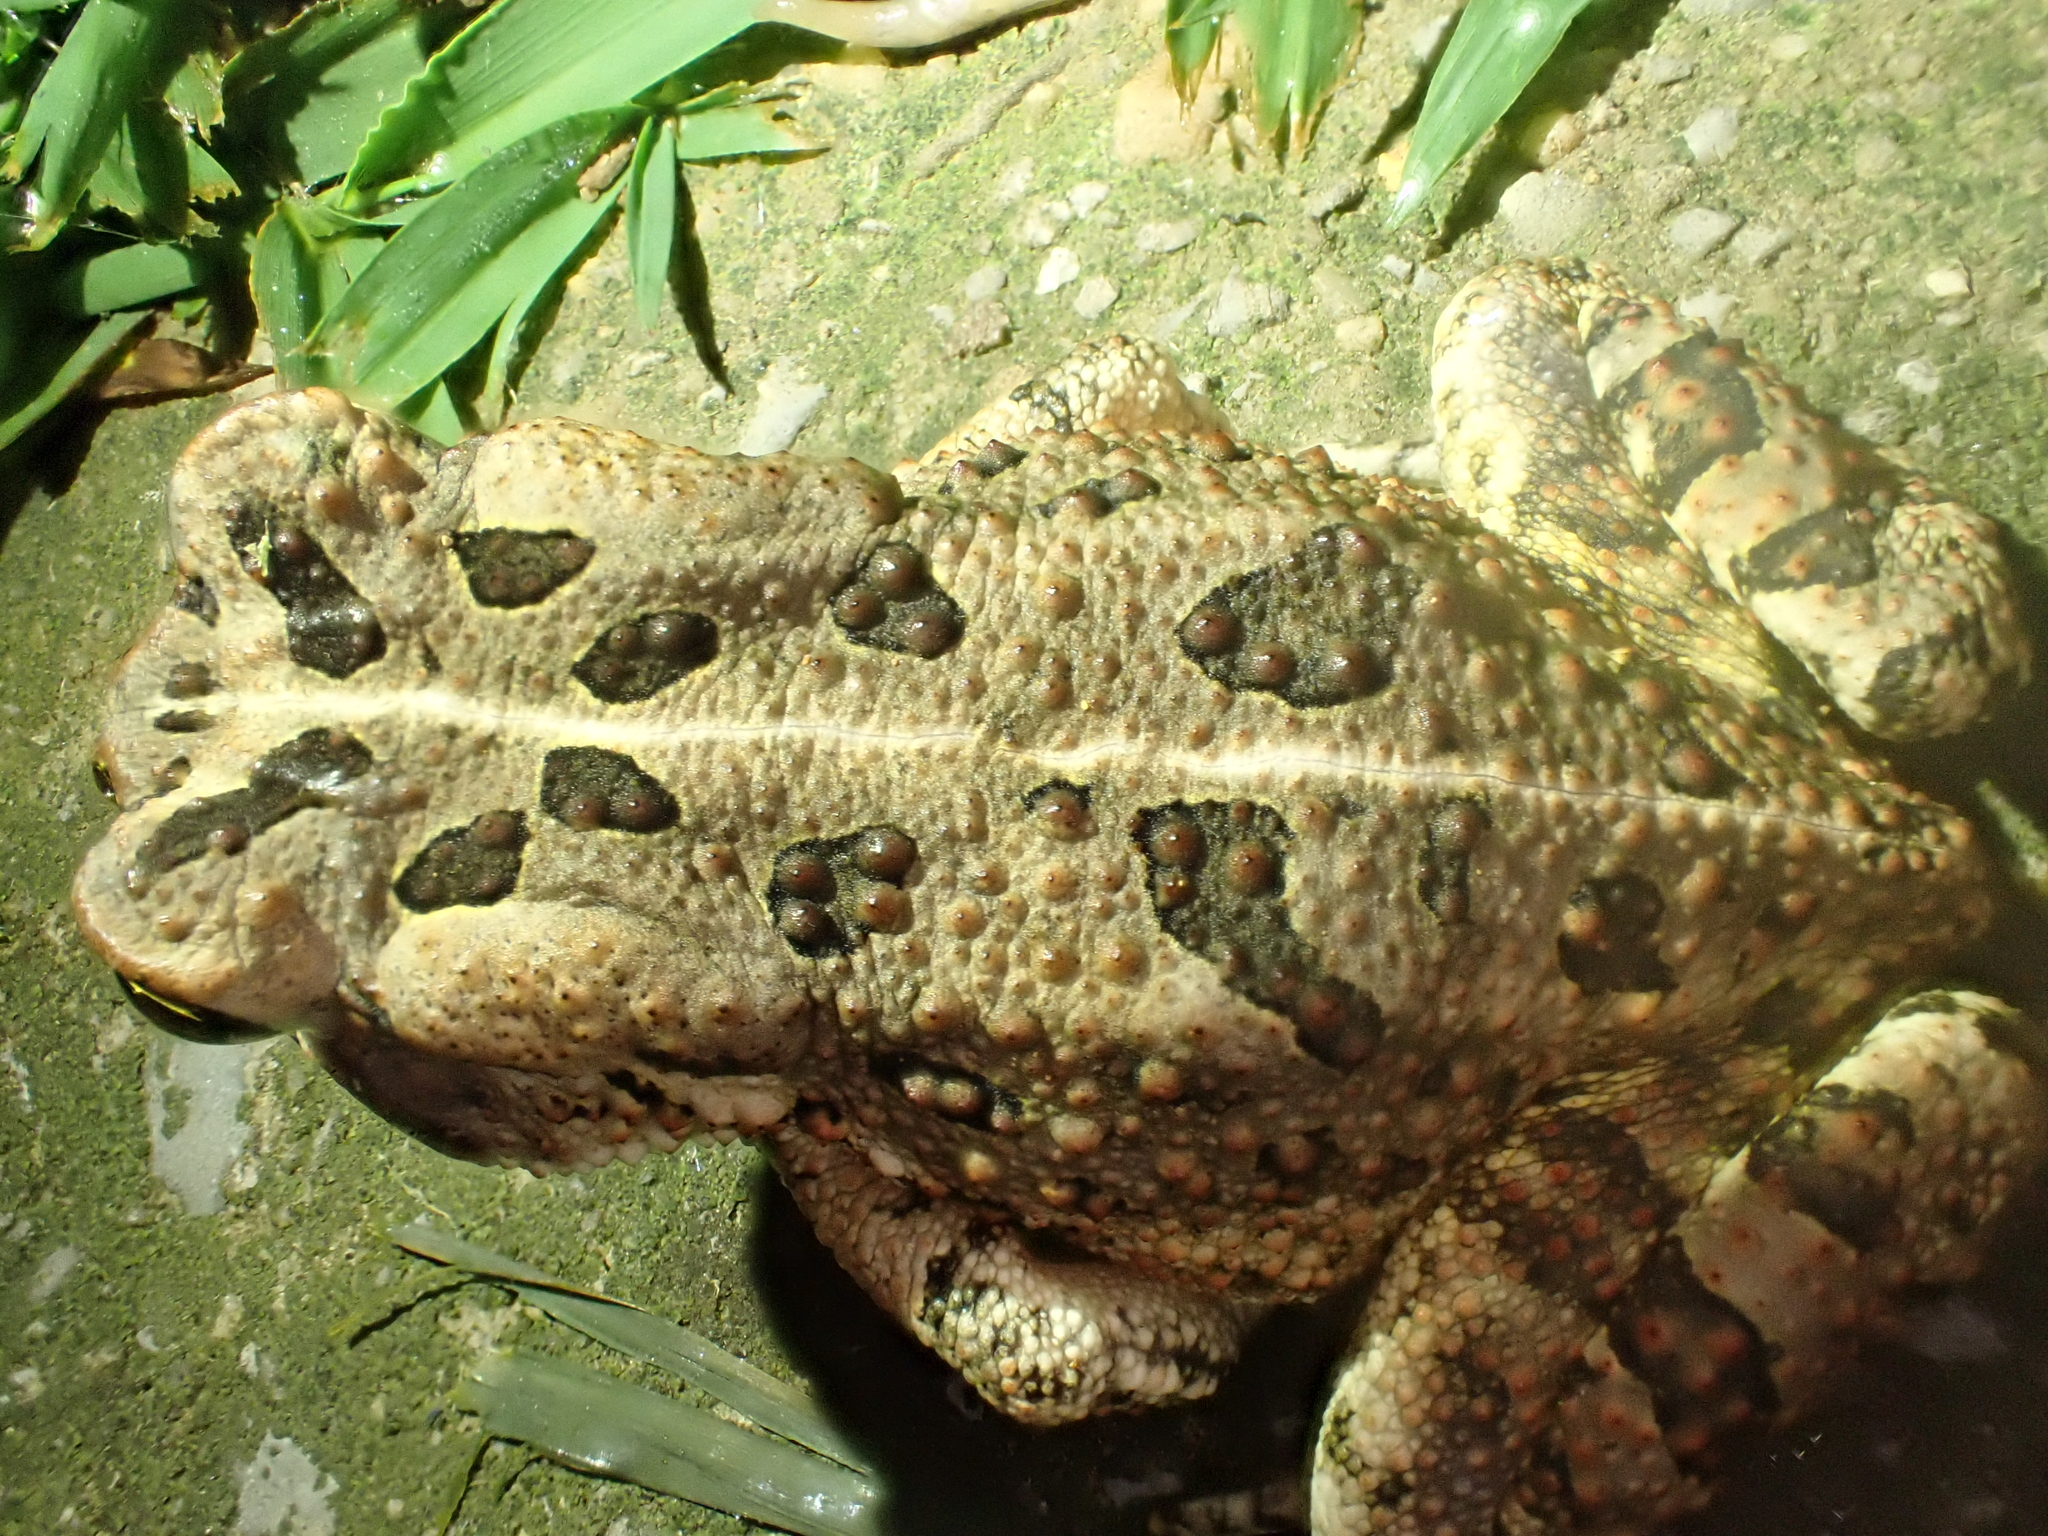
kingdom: Animalia
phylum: Chordata
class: Amphibia
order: Anura
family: Bufonidae
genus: Anaxyrus
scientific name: Anaxyrus fowleri
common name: Fowler's toad
